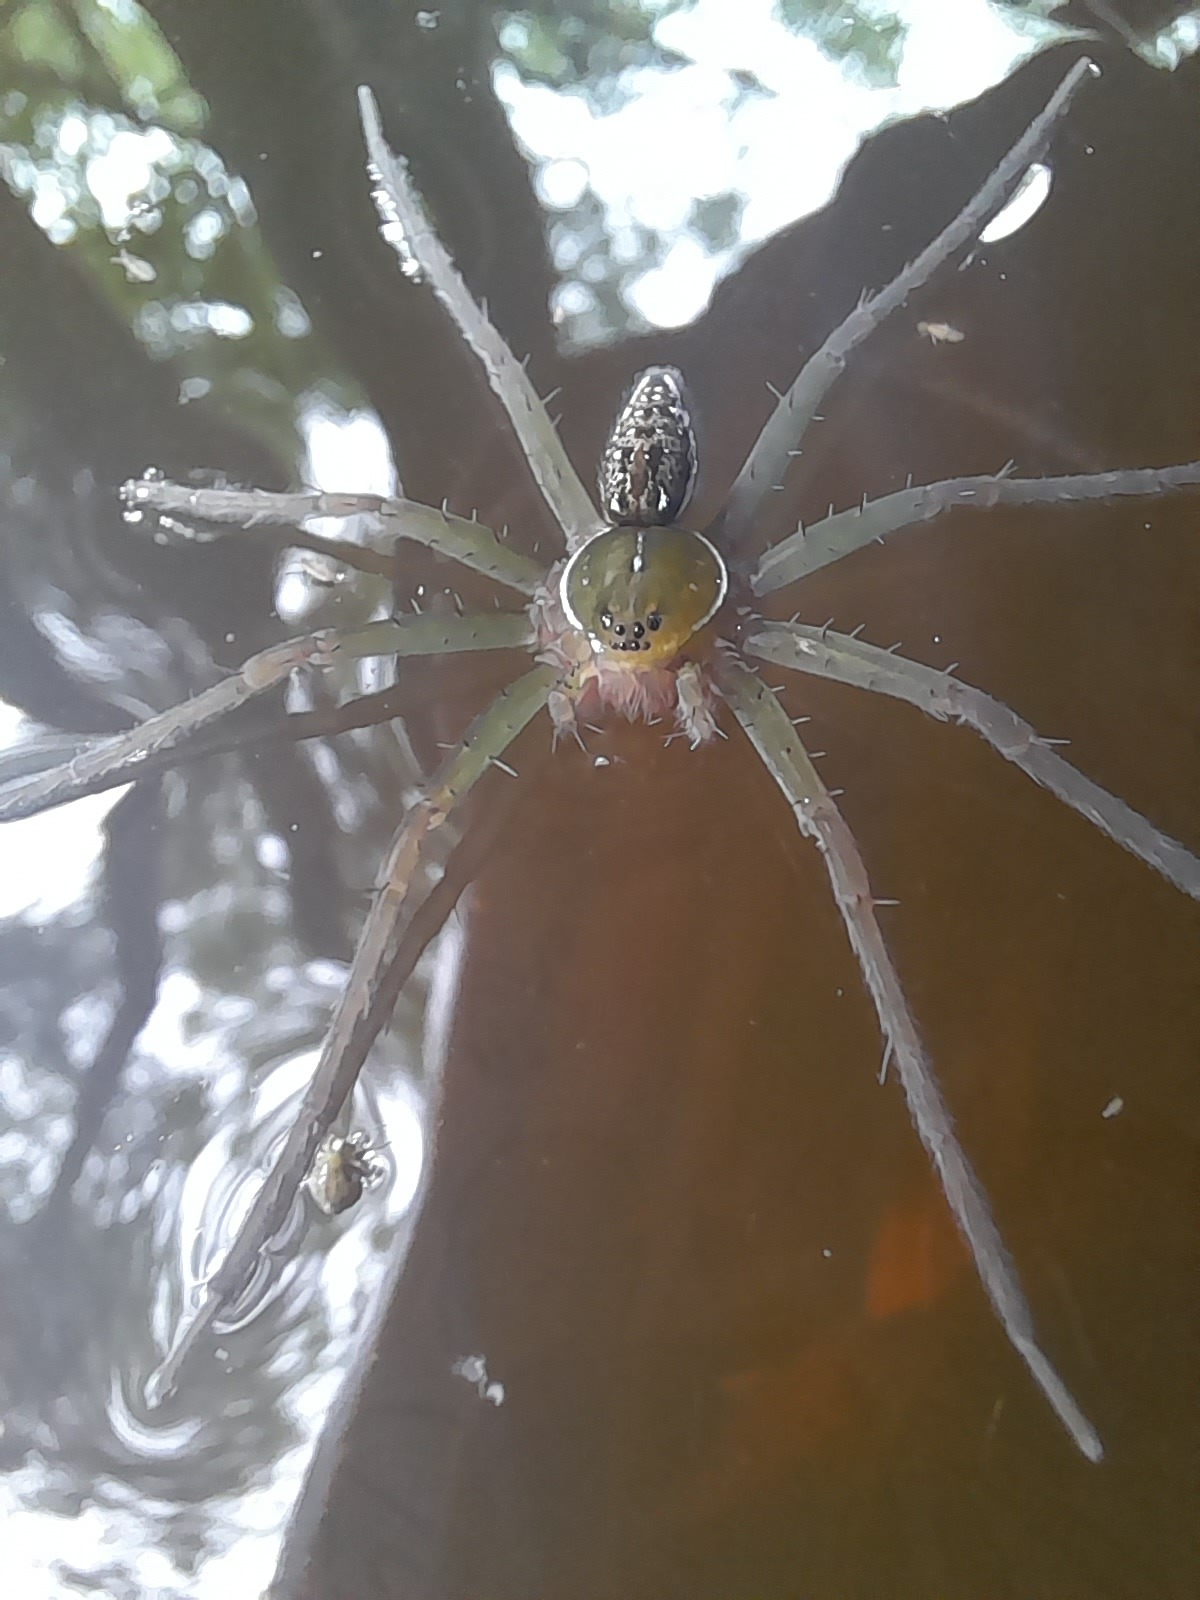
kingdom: Animalia
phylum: Arthropoda
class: Arachnida
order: Araneae
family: Pisauridae
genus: Thaumasia
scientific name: Thaumasia velox
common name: Nursery web spiders
